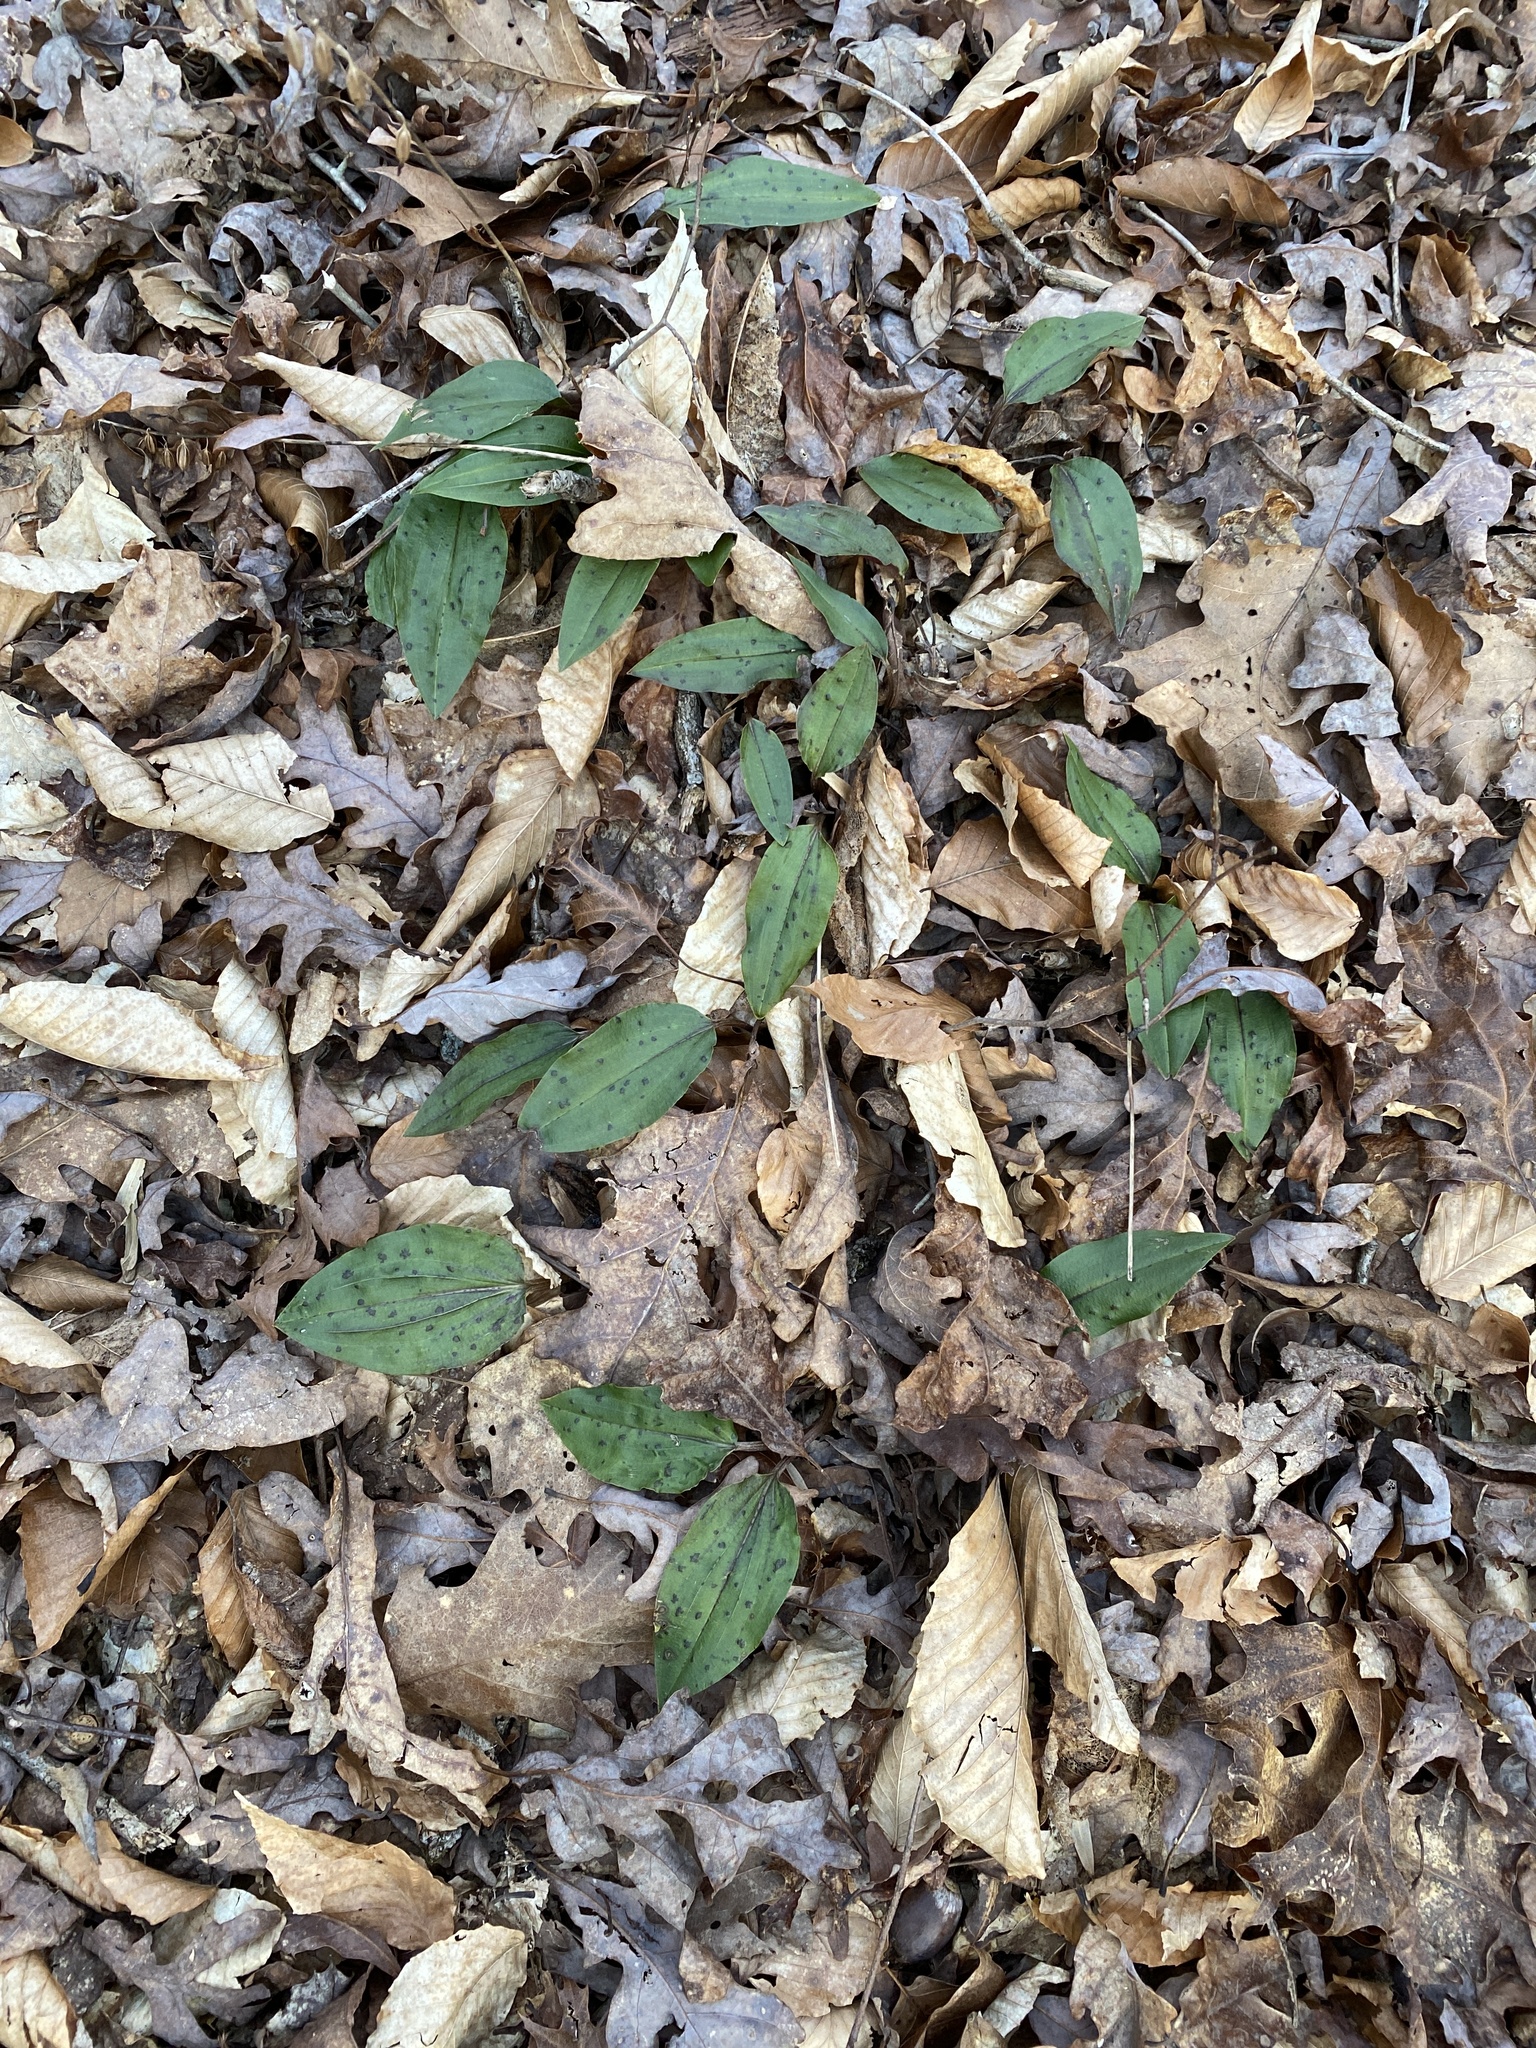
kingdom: Plantae
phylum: Tracheophyta
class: Liliopsida
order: Asparagales
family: Orchidaceae
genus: Tipularia
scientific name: Tipularia discolor
